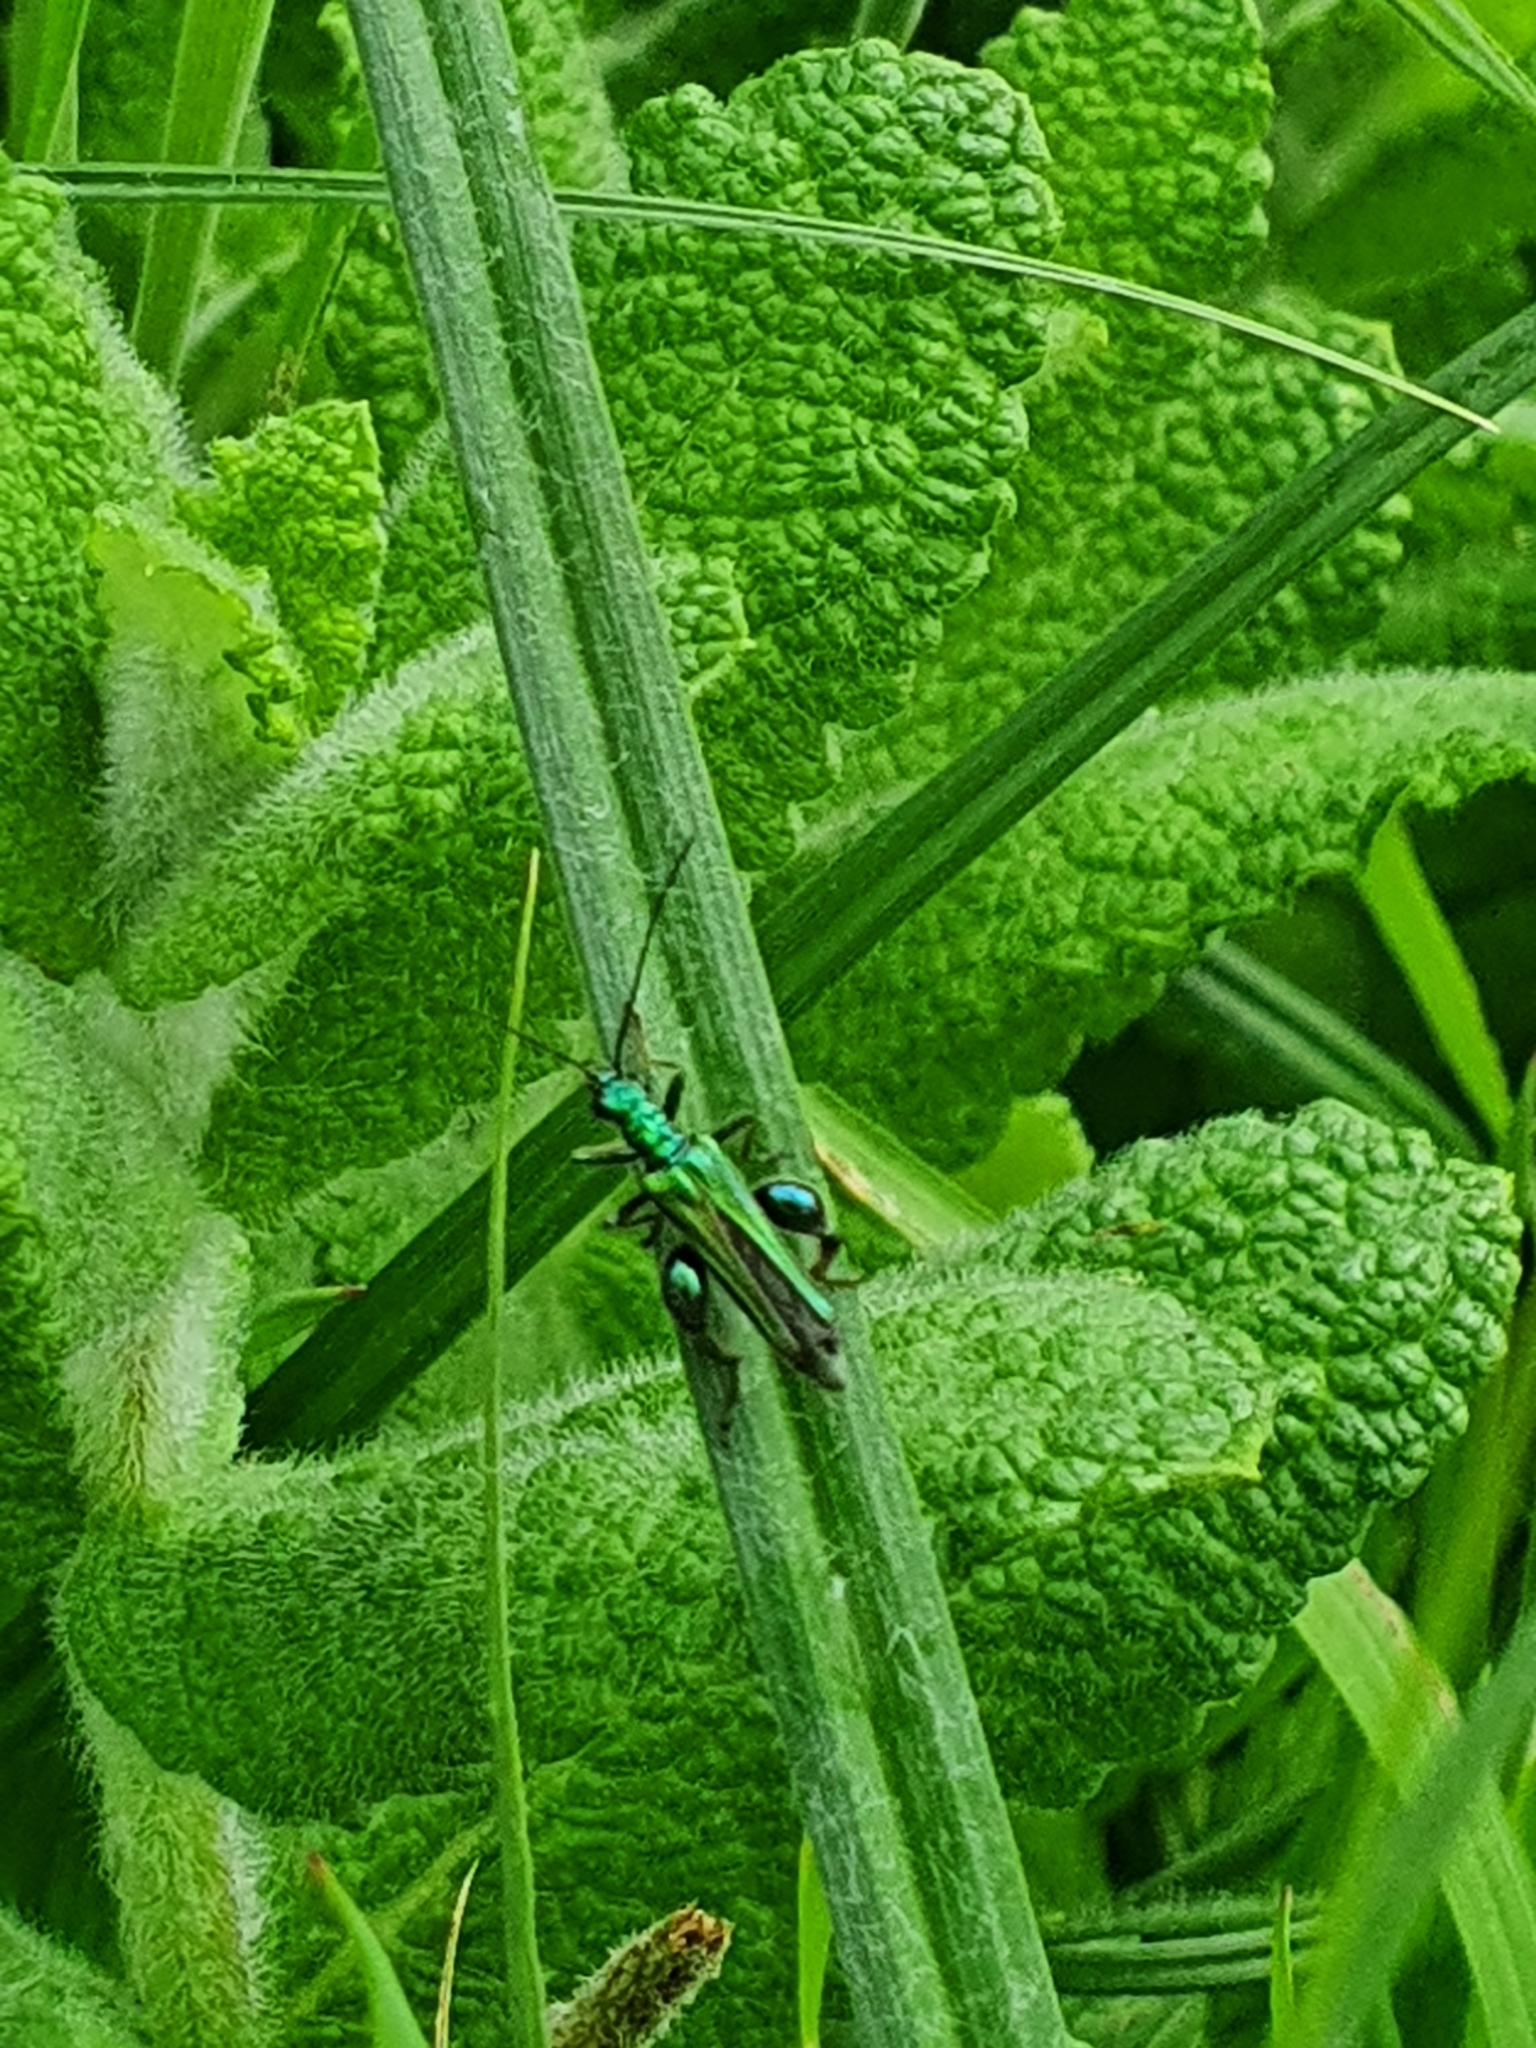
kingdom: Animalia
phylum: Arthropoda
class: Insecta
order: Coleoptera
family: Oedemeridae
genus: Oedemera
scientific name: Oedemera nobilis
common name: Swollen-thighed beetle
